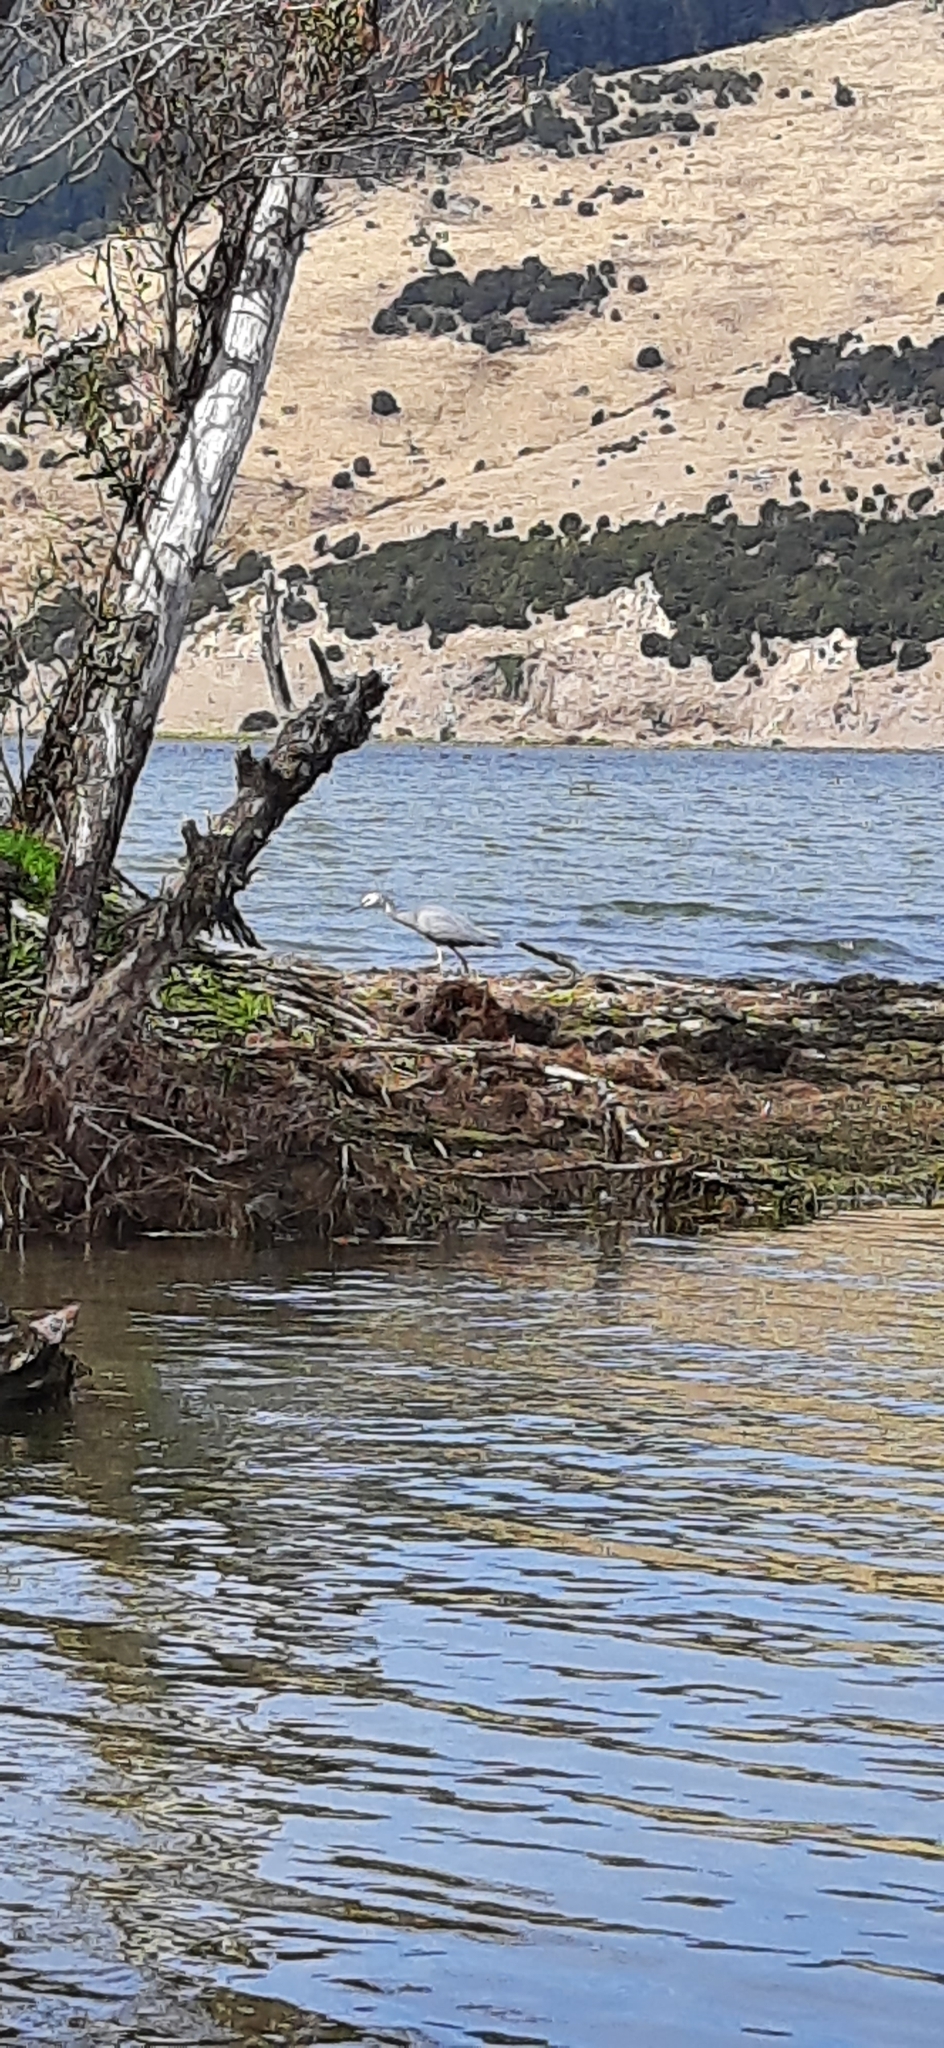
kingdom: Animalia
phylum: Chordata
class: Aves
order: Pelecaniformes
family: Ardeidae
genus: Egretta
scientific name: Egretta novaehollandiae
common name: White-faced heron
